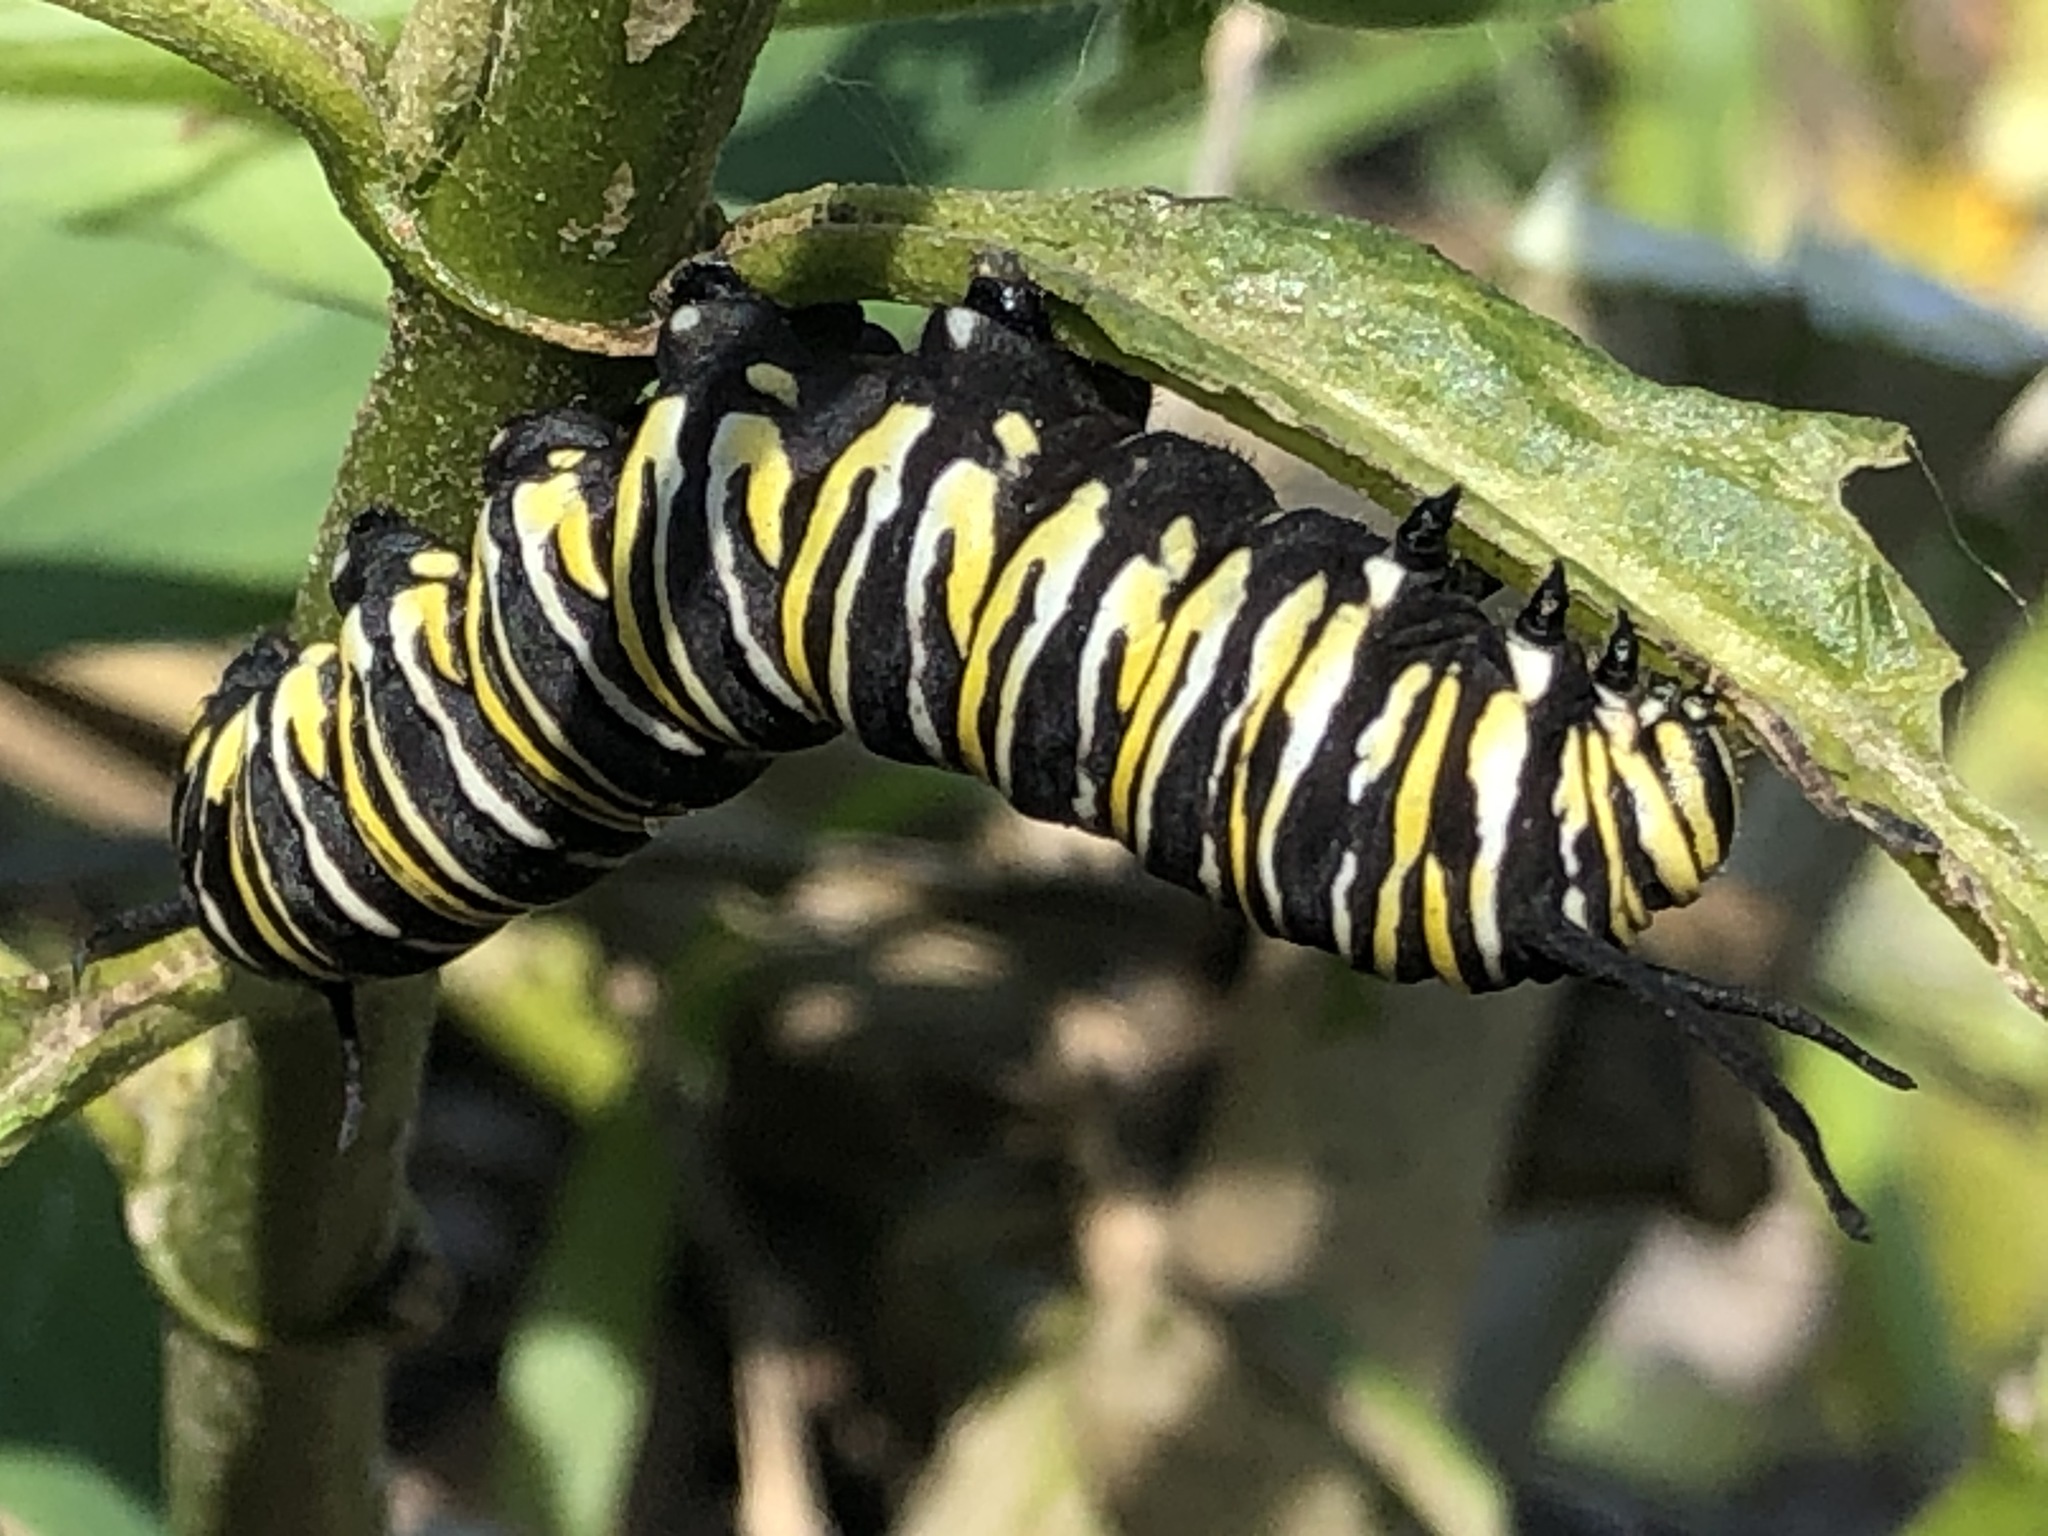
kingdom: Animalia
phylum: Arthropoda
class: Insecta
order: Lepidoptera
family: Nymphalidae
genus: Danaus
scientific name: Danaus plexippus
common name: Monarch
